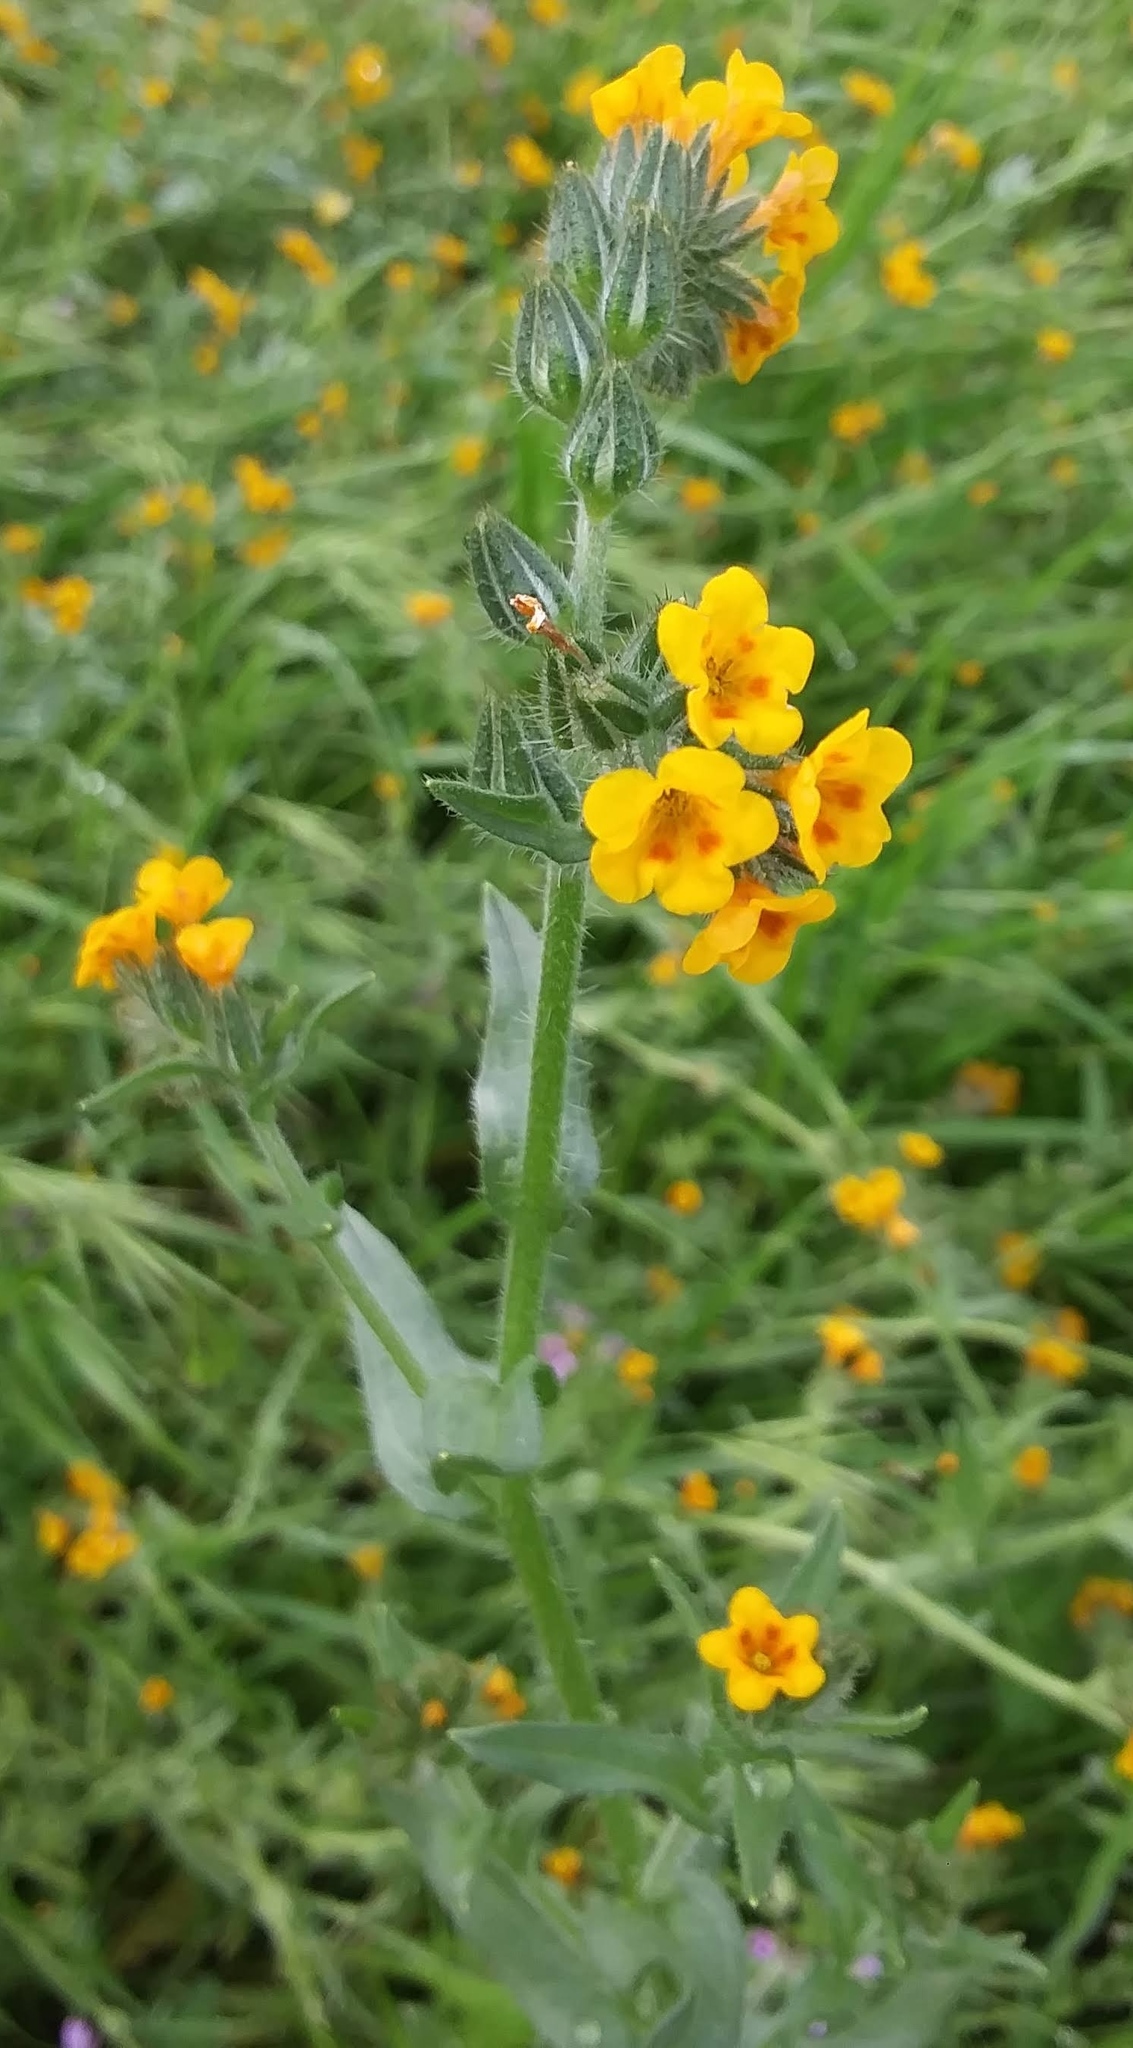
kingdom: Plantae
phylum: Tracheophyta
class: Magnoliopsida
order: Boraginales
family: Boraginaceae
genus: Amsinckia
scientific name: Amsinckia menziesii
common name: Menzies' fiddleneck
